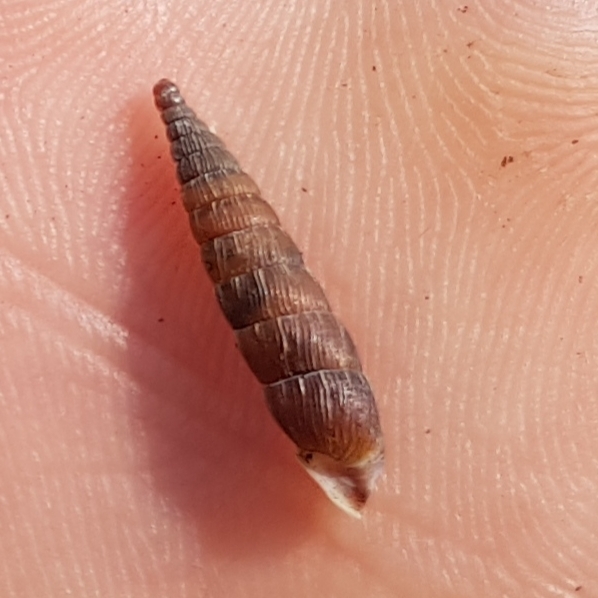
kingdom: Animalia
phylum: Mollusca
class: Gastropoda
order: Stylommatophora
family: Clausiliidae
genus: Alinda
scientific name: Alinda biplicata
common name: Thames door snail
